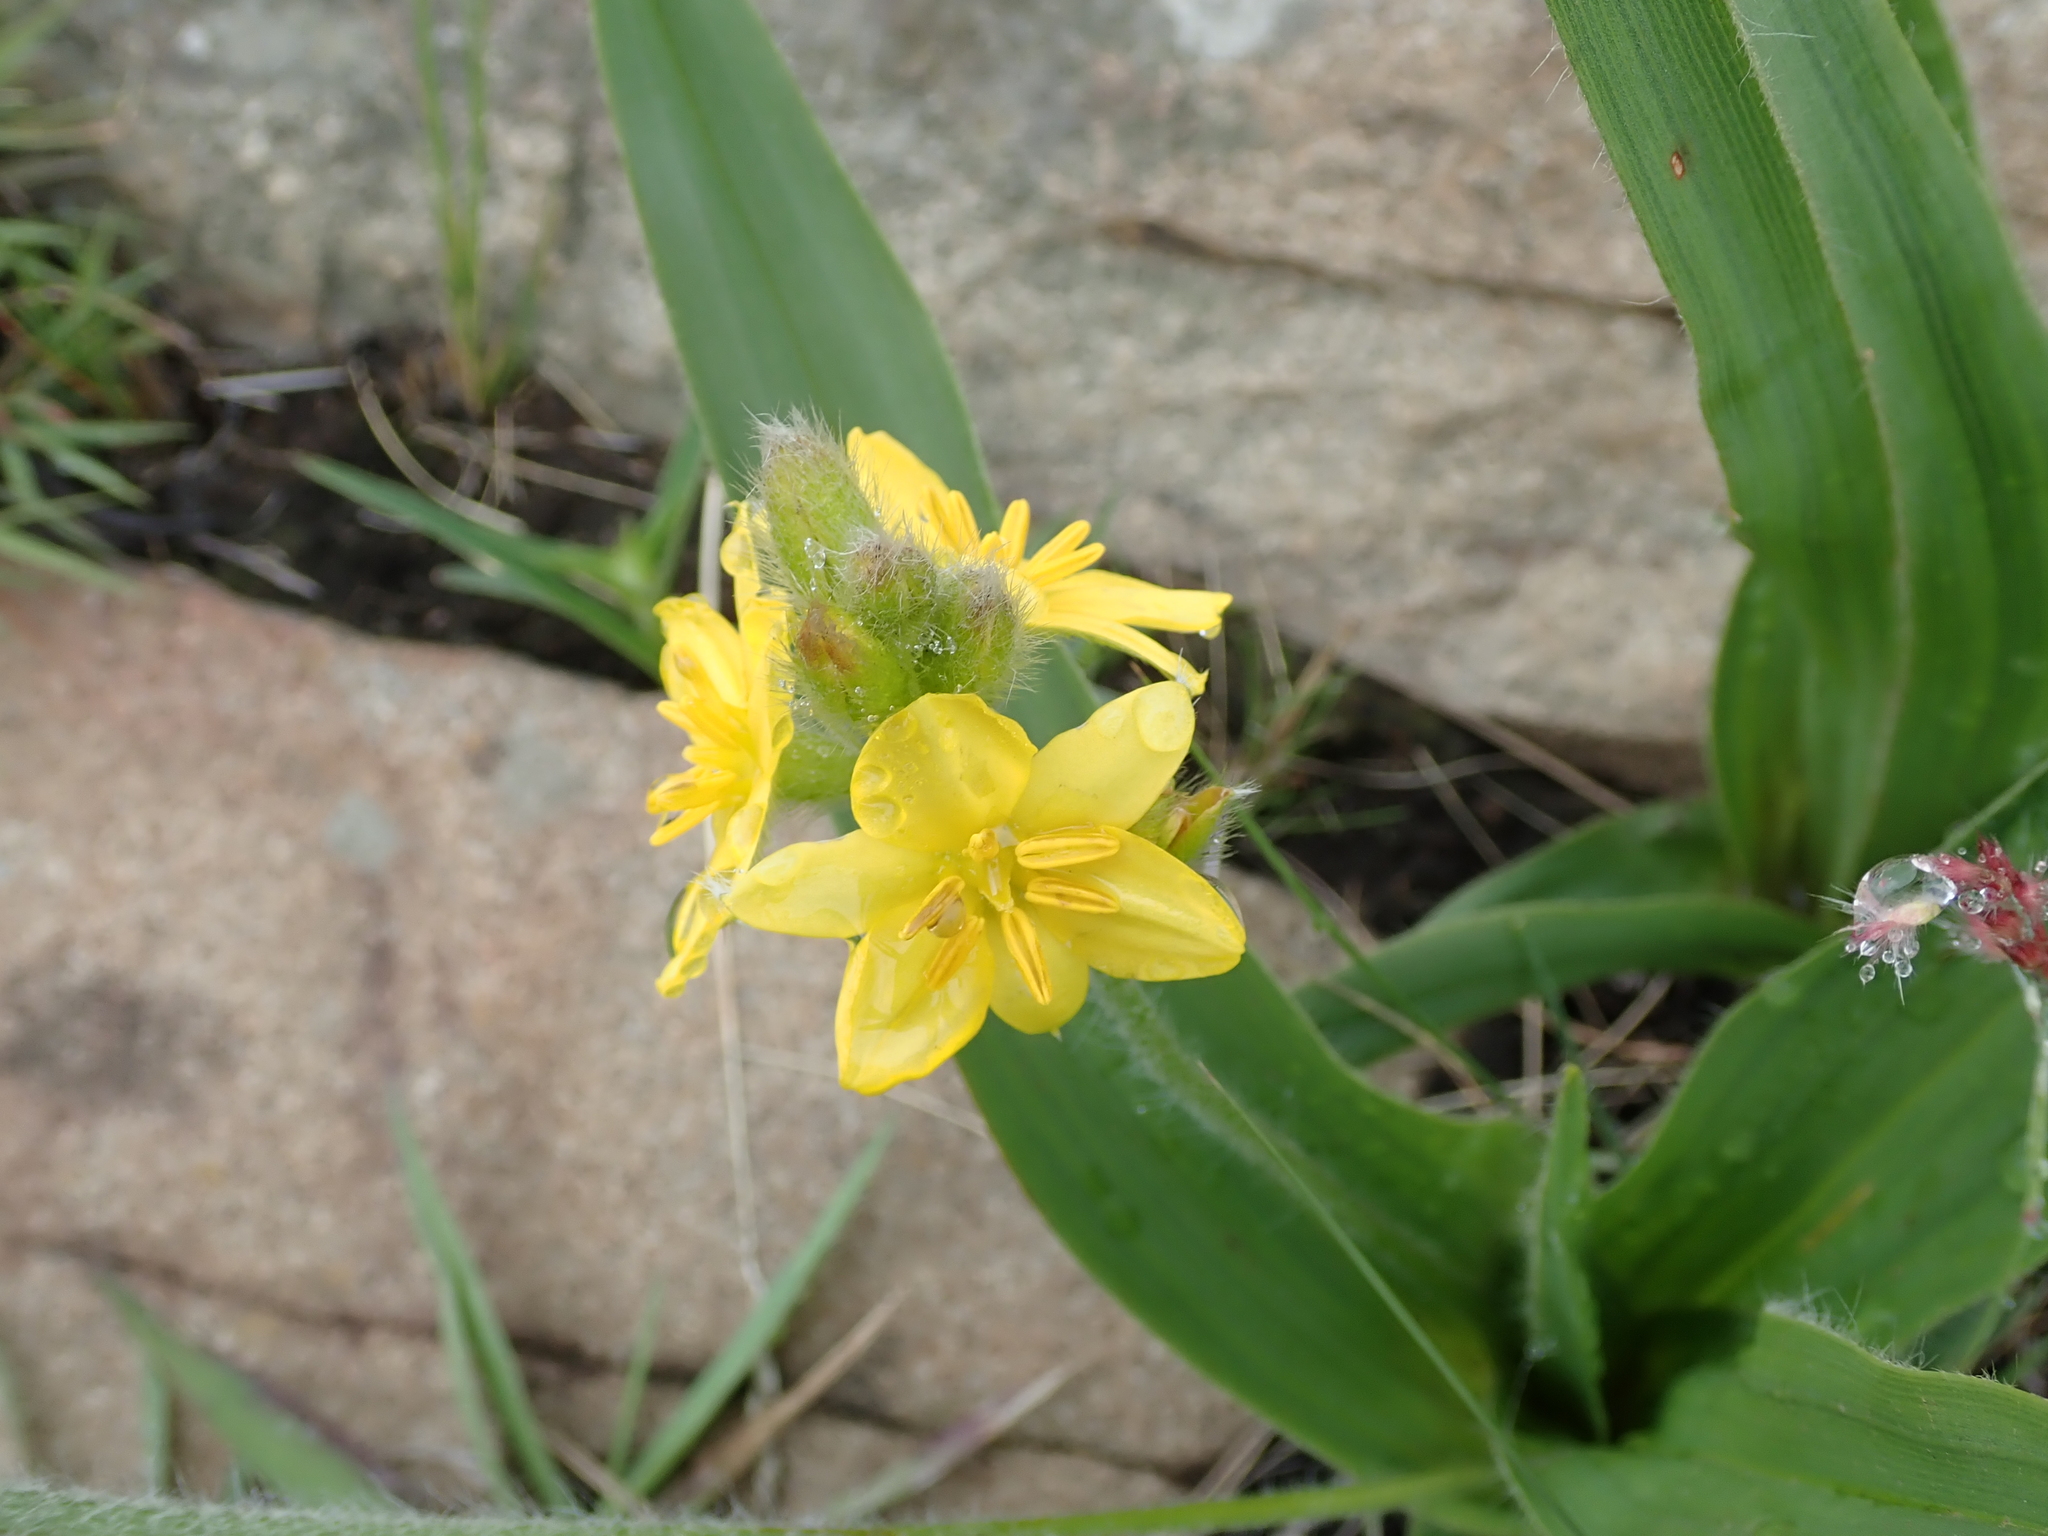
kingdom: Plantae
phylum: Tracheophyta
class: Liliopsida
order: Asparagales
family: Hypoxidaceae
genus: Hypoxis
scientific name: Hypoxis galpinii
